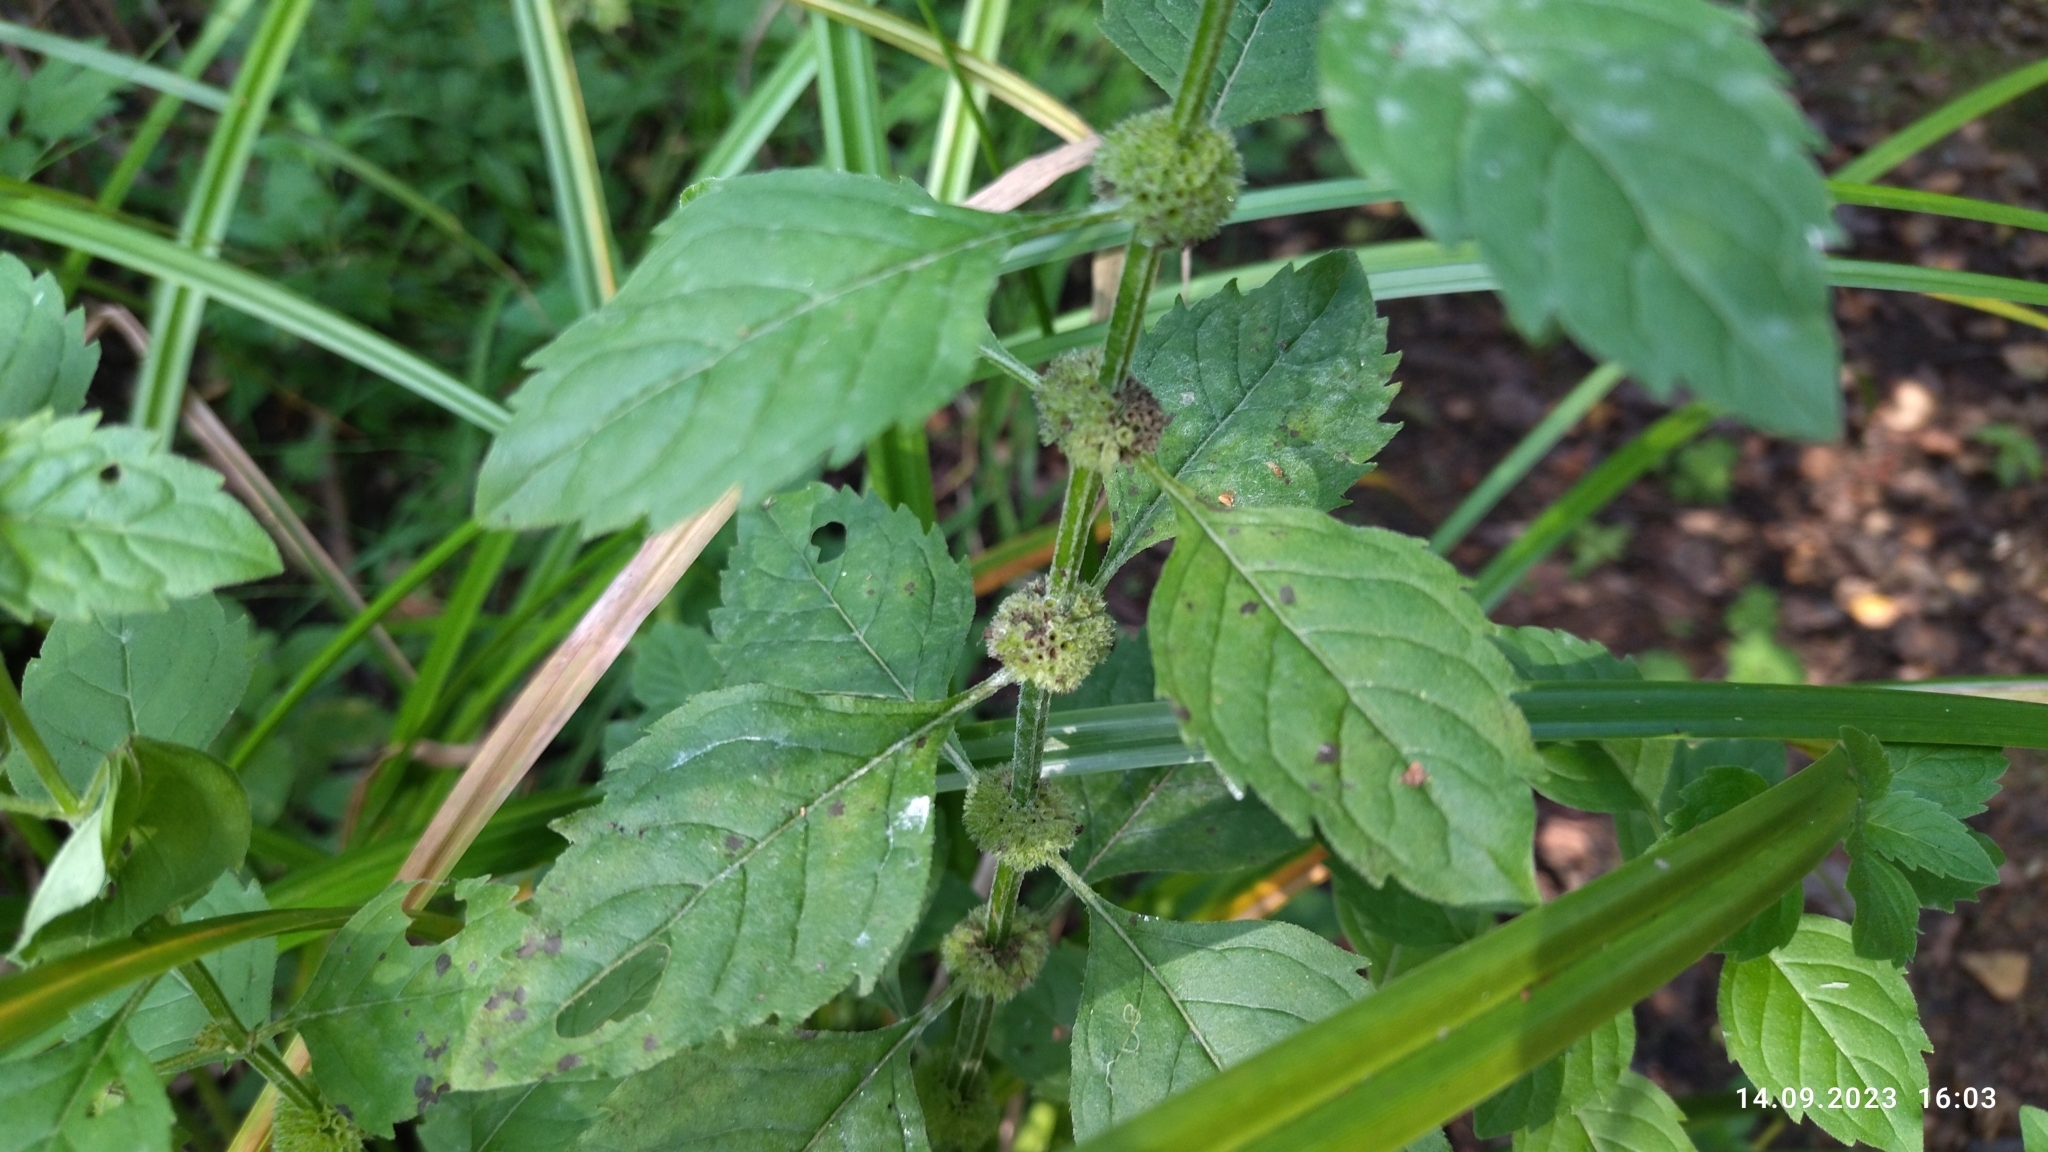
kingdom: Plantae
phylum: Tracheophyta
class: Magnoliopsida
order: Lamiales
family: Lamiaceae
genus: Mentha
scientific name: Mentha arvensis
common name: Corn mint
